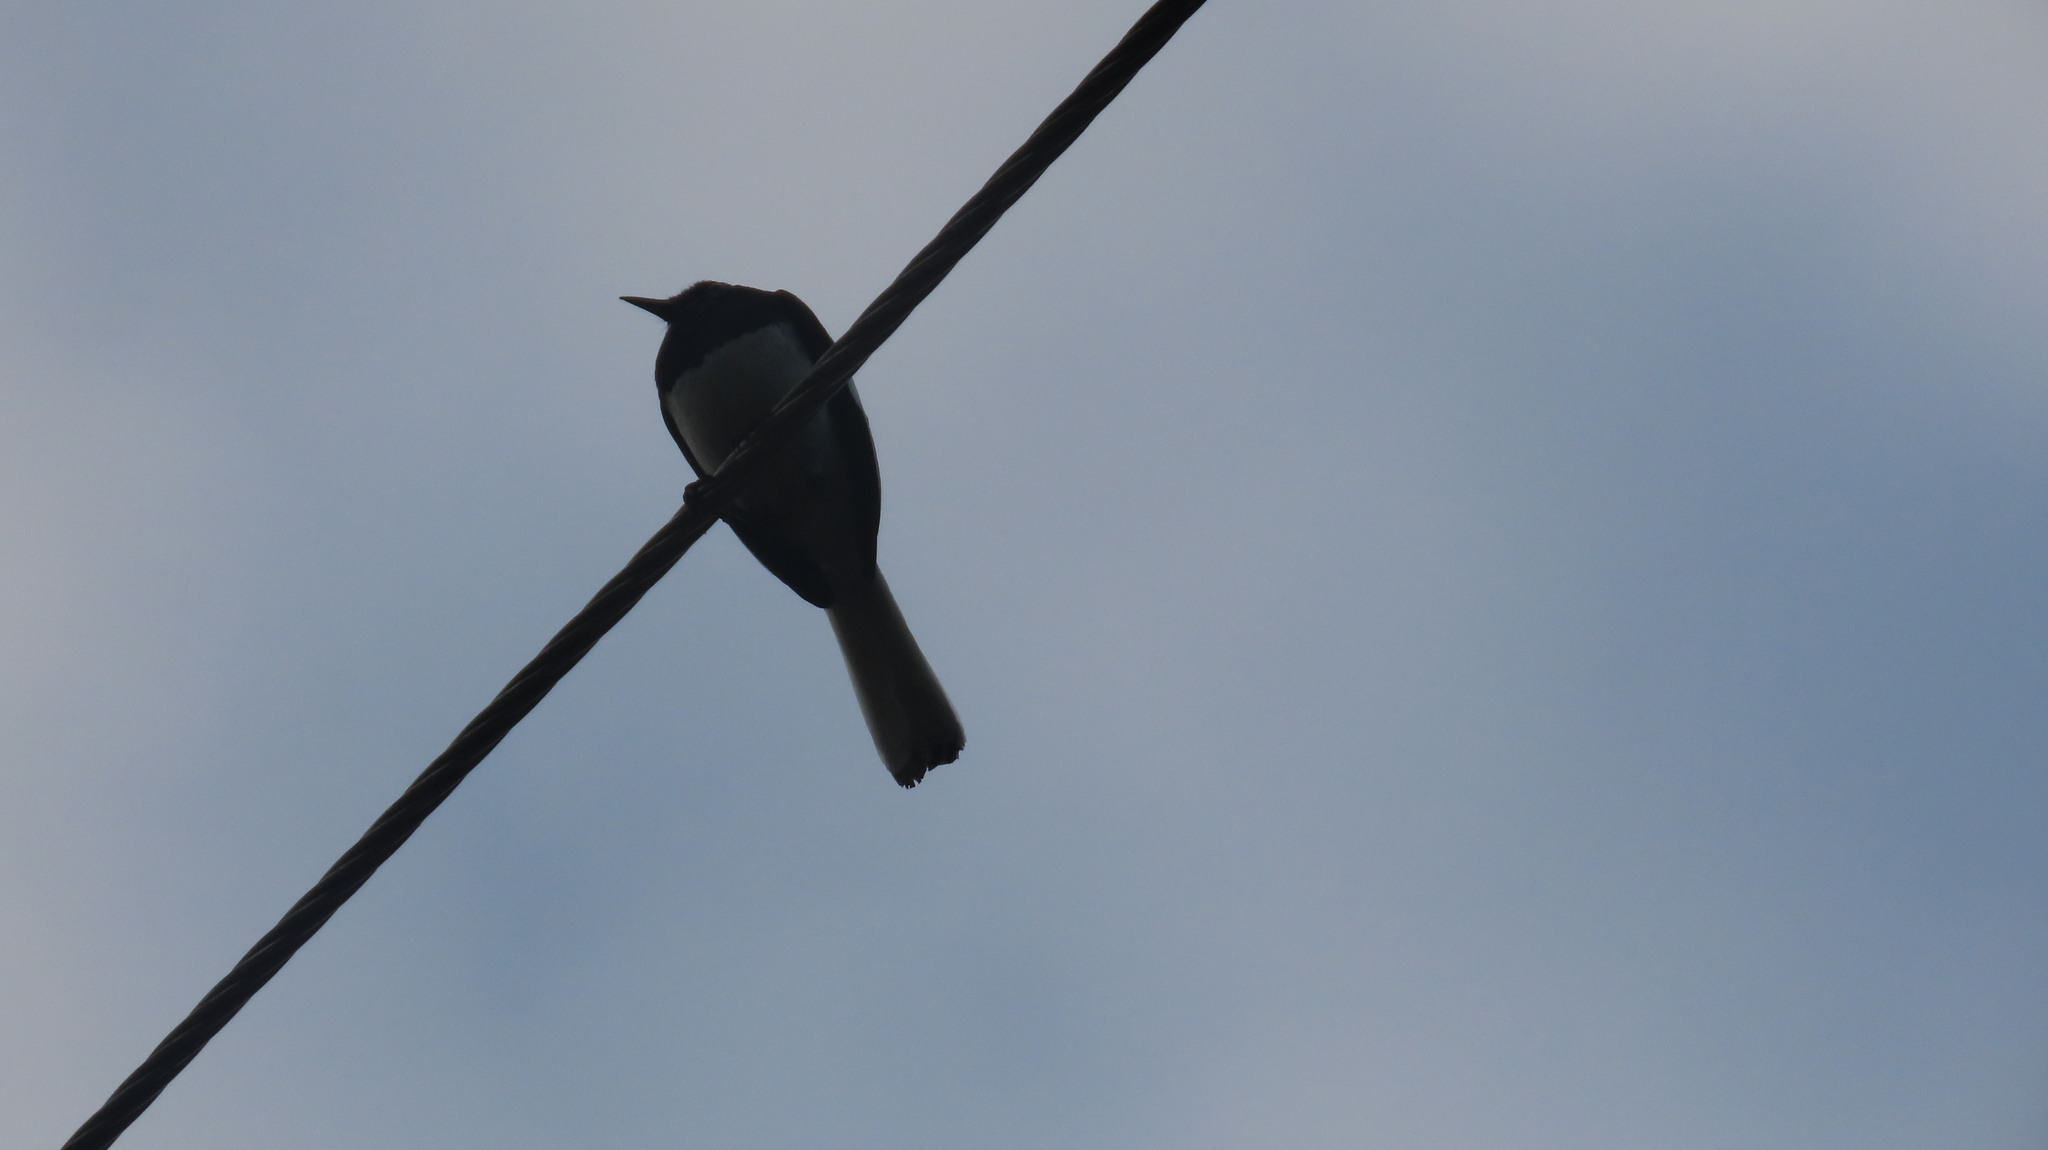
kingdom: Animalia
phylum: Chordata
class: Aves
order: Passeriformes
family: Muscicapidae
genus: Copsychus
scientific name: Copsychus saularis
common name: Oriental magpie-robin
